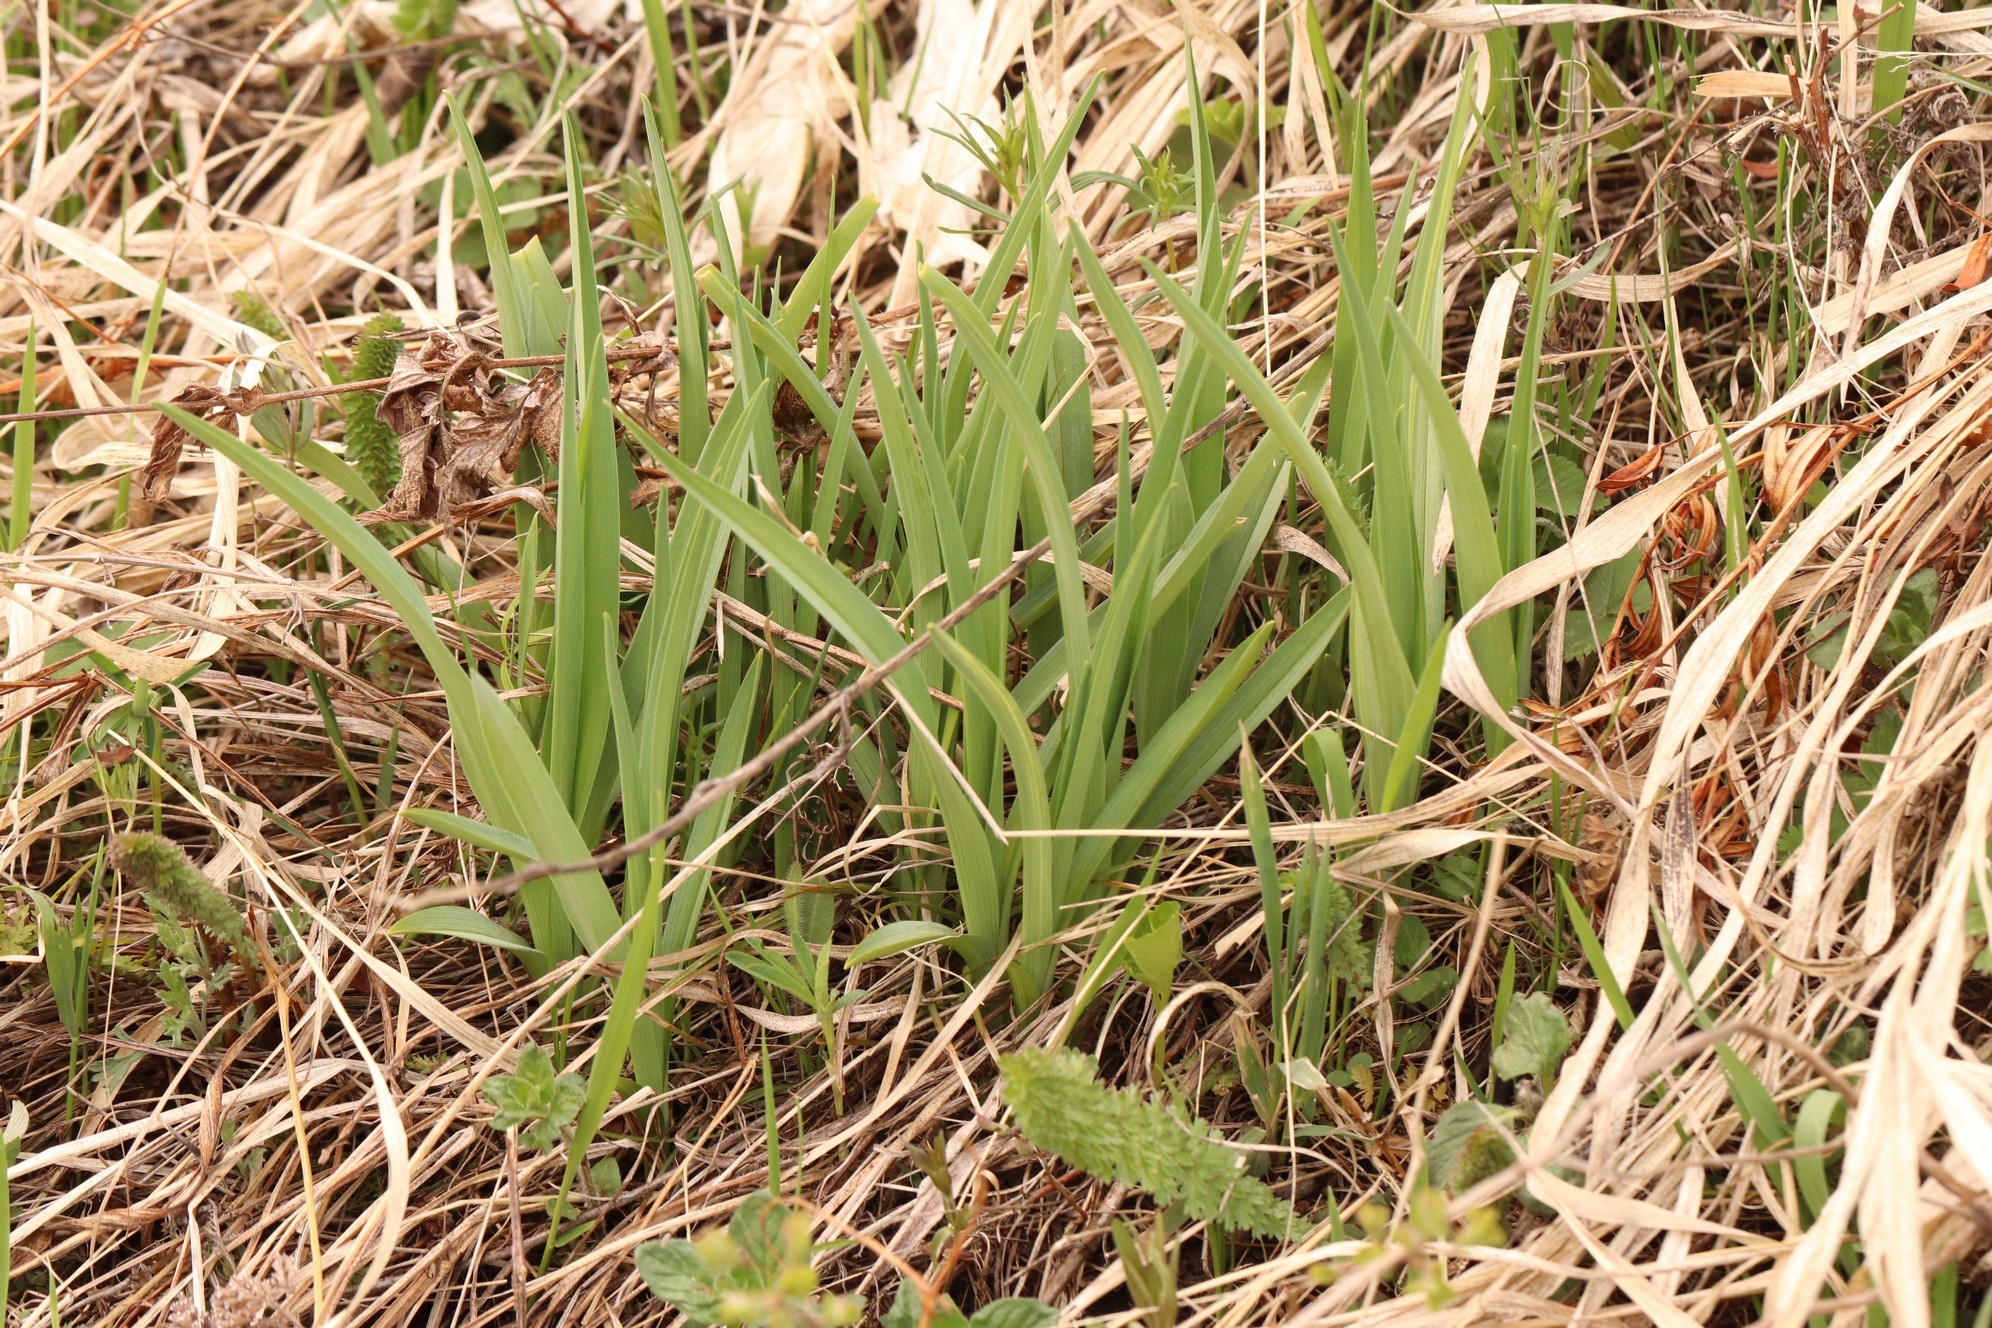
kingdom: Plantae
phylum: Tracheophyta
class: Liliopsida
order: Asparagales
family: Asphodelaceae
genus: Hemerocallis
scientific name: Hemerocallis minor
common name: Small daylily
